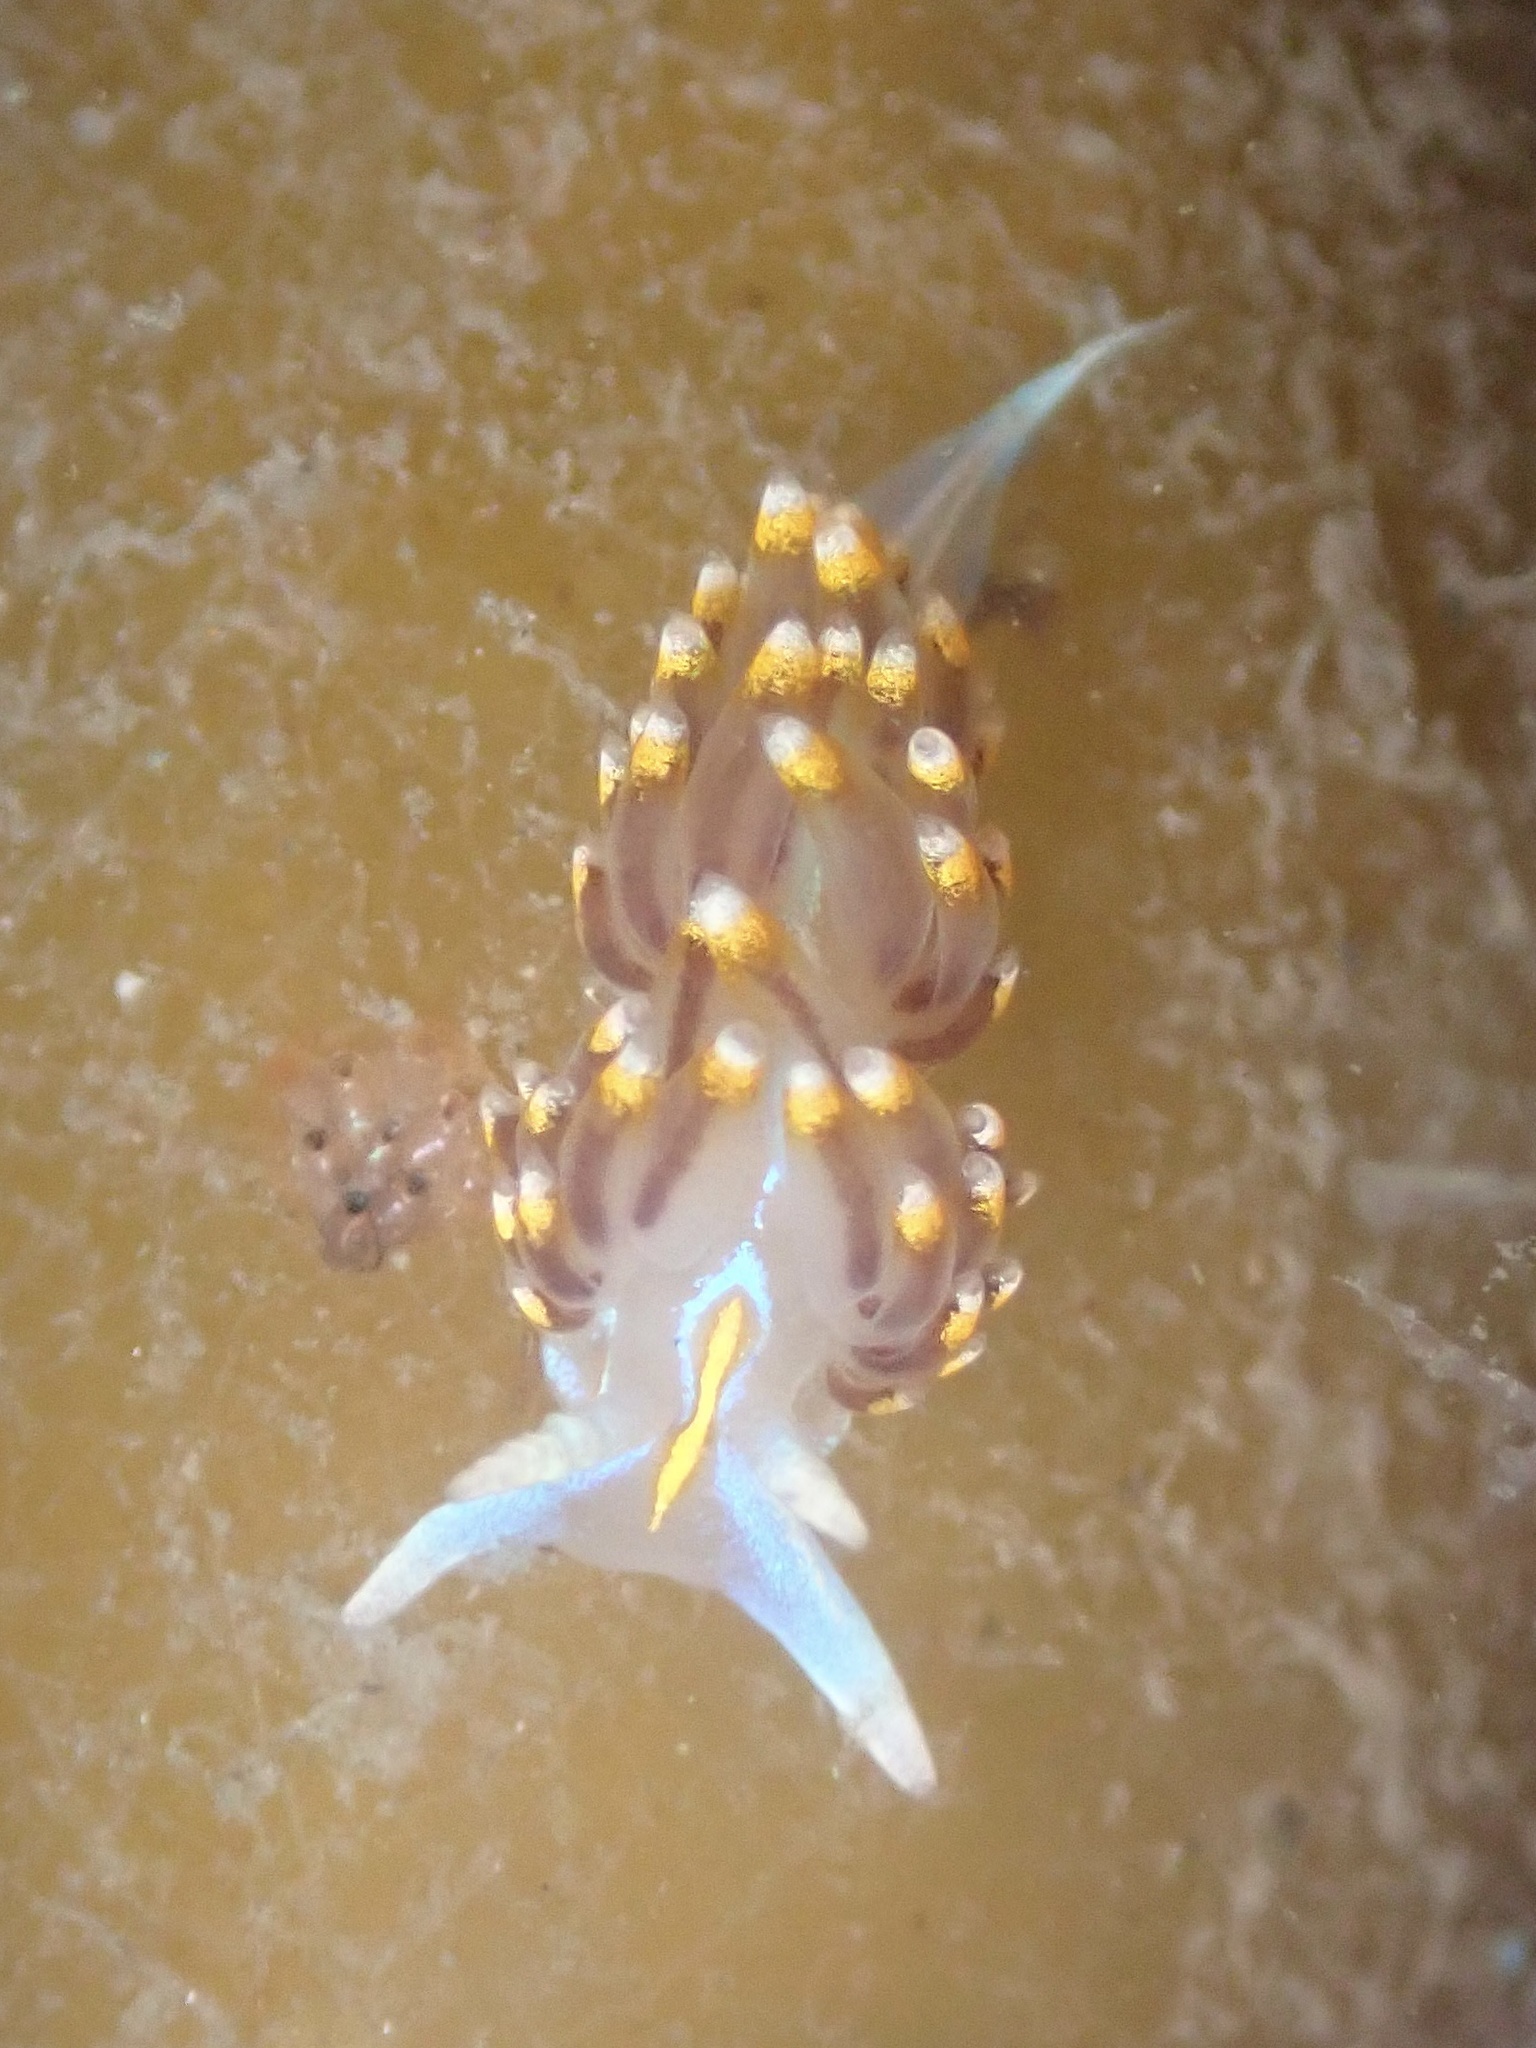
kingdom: Animalia
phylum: Mollusca
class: Gastropoda
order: Nudibranchia
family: Myrrhinidae
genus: Hermissenda
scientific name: Hermissenda opalescens
